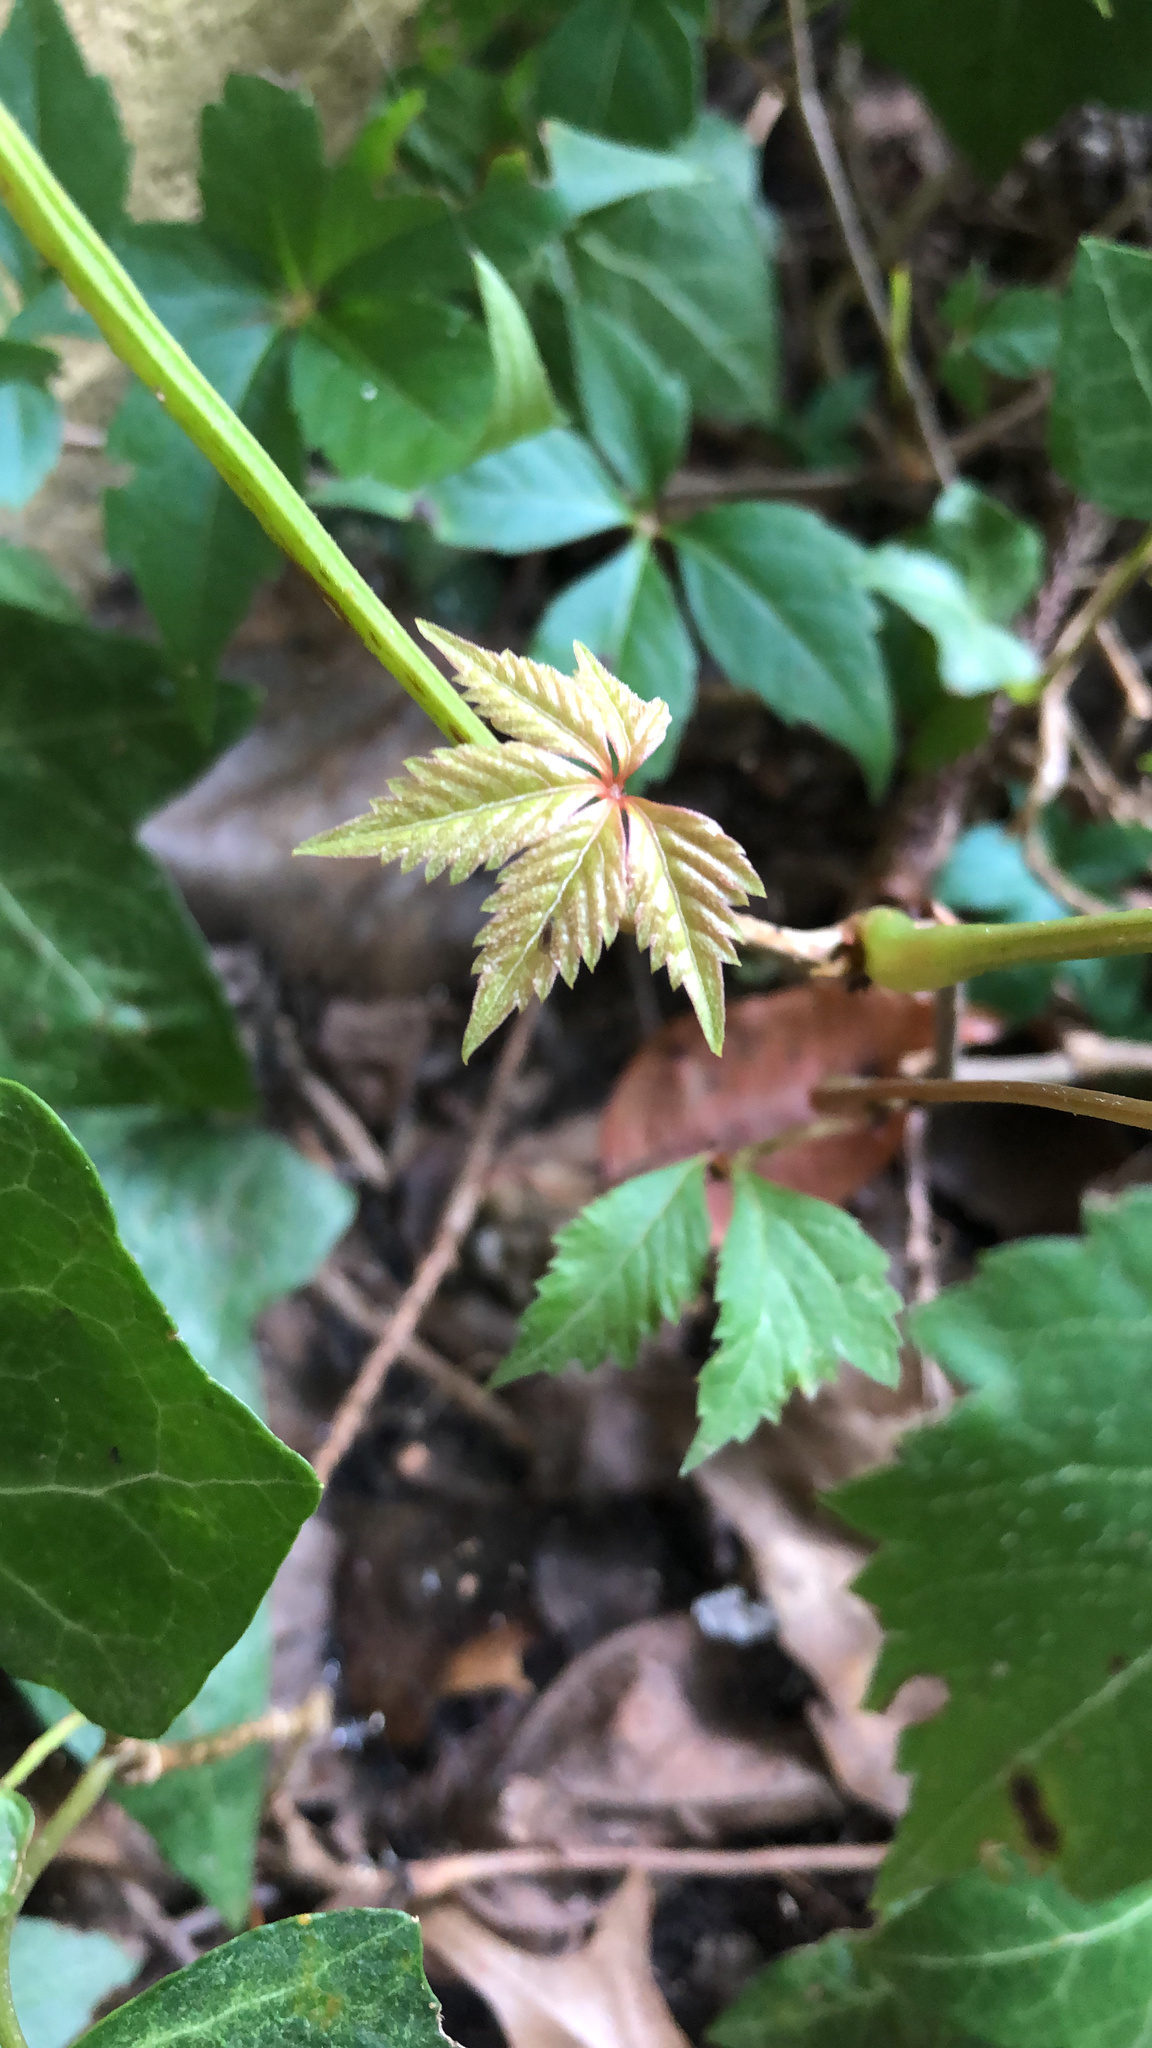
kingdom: Plantae
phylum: Tracheophyta
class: Magnoliopsida
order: Vitales
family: Vitaceae
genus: Parthenocissus
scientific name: Parthenocissus quinquefolia
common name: Virginia-creeper
